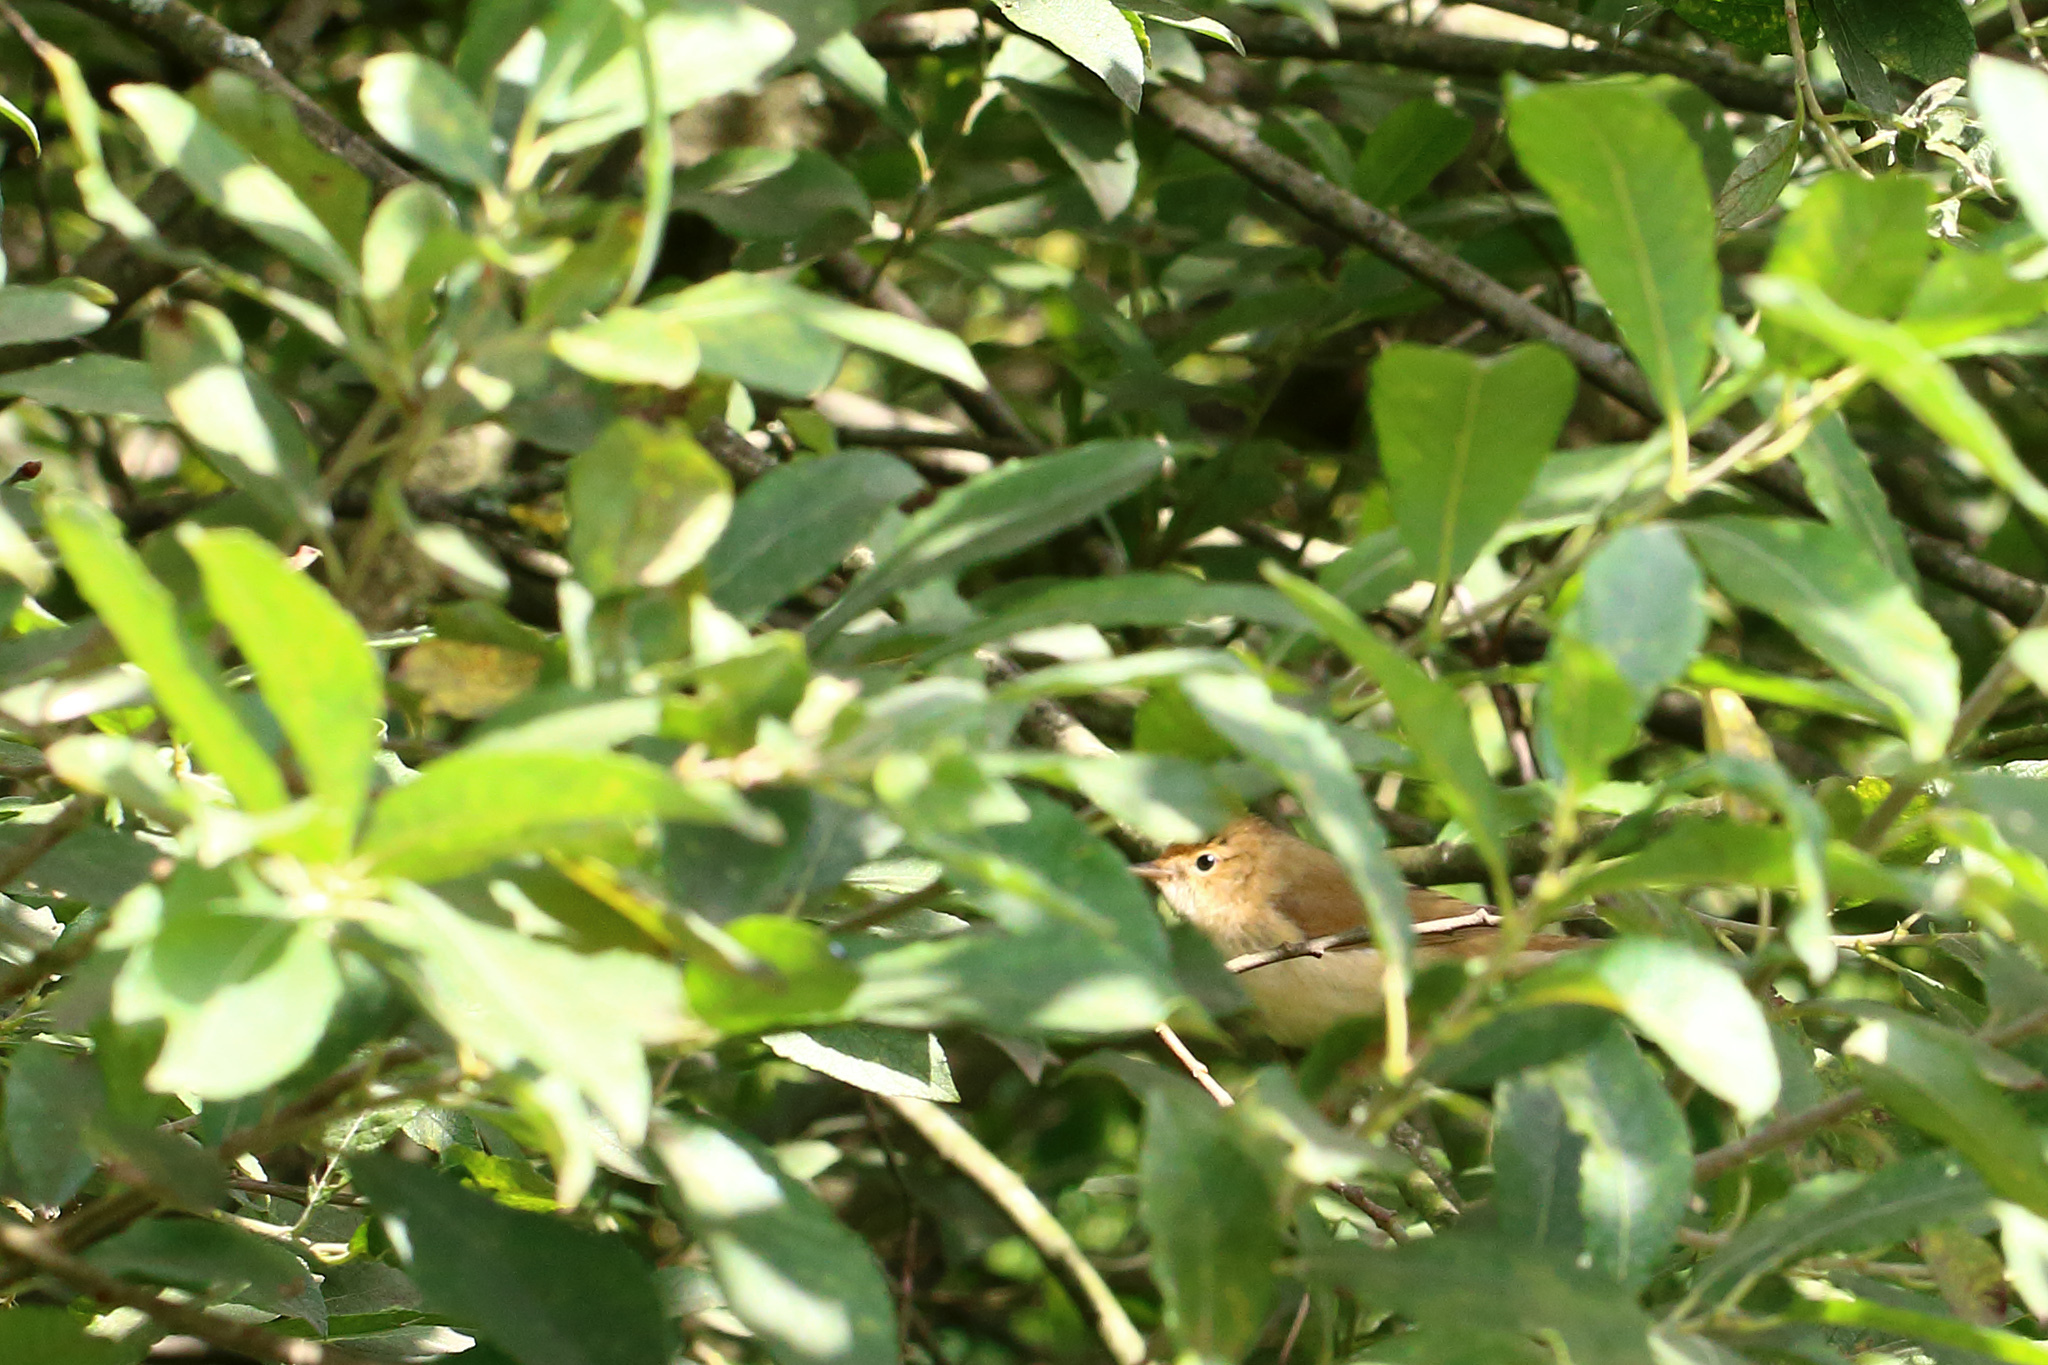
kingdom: Animalia
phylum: Chordata
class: Aves
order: Passeriformes
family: Phylloscopidae
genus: Phylloscopus
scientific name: Phylloscopus collybita
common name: Common chiffchaff
